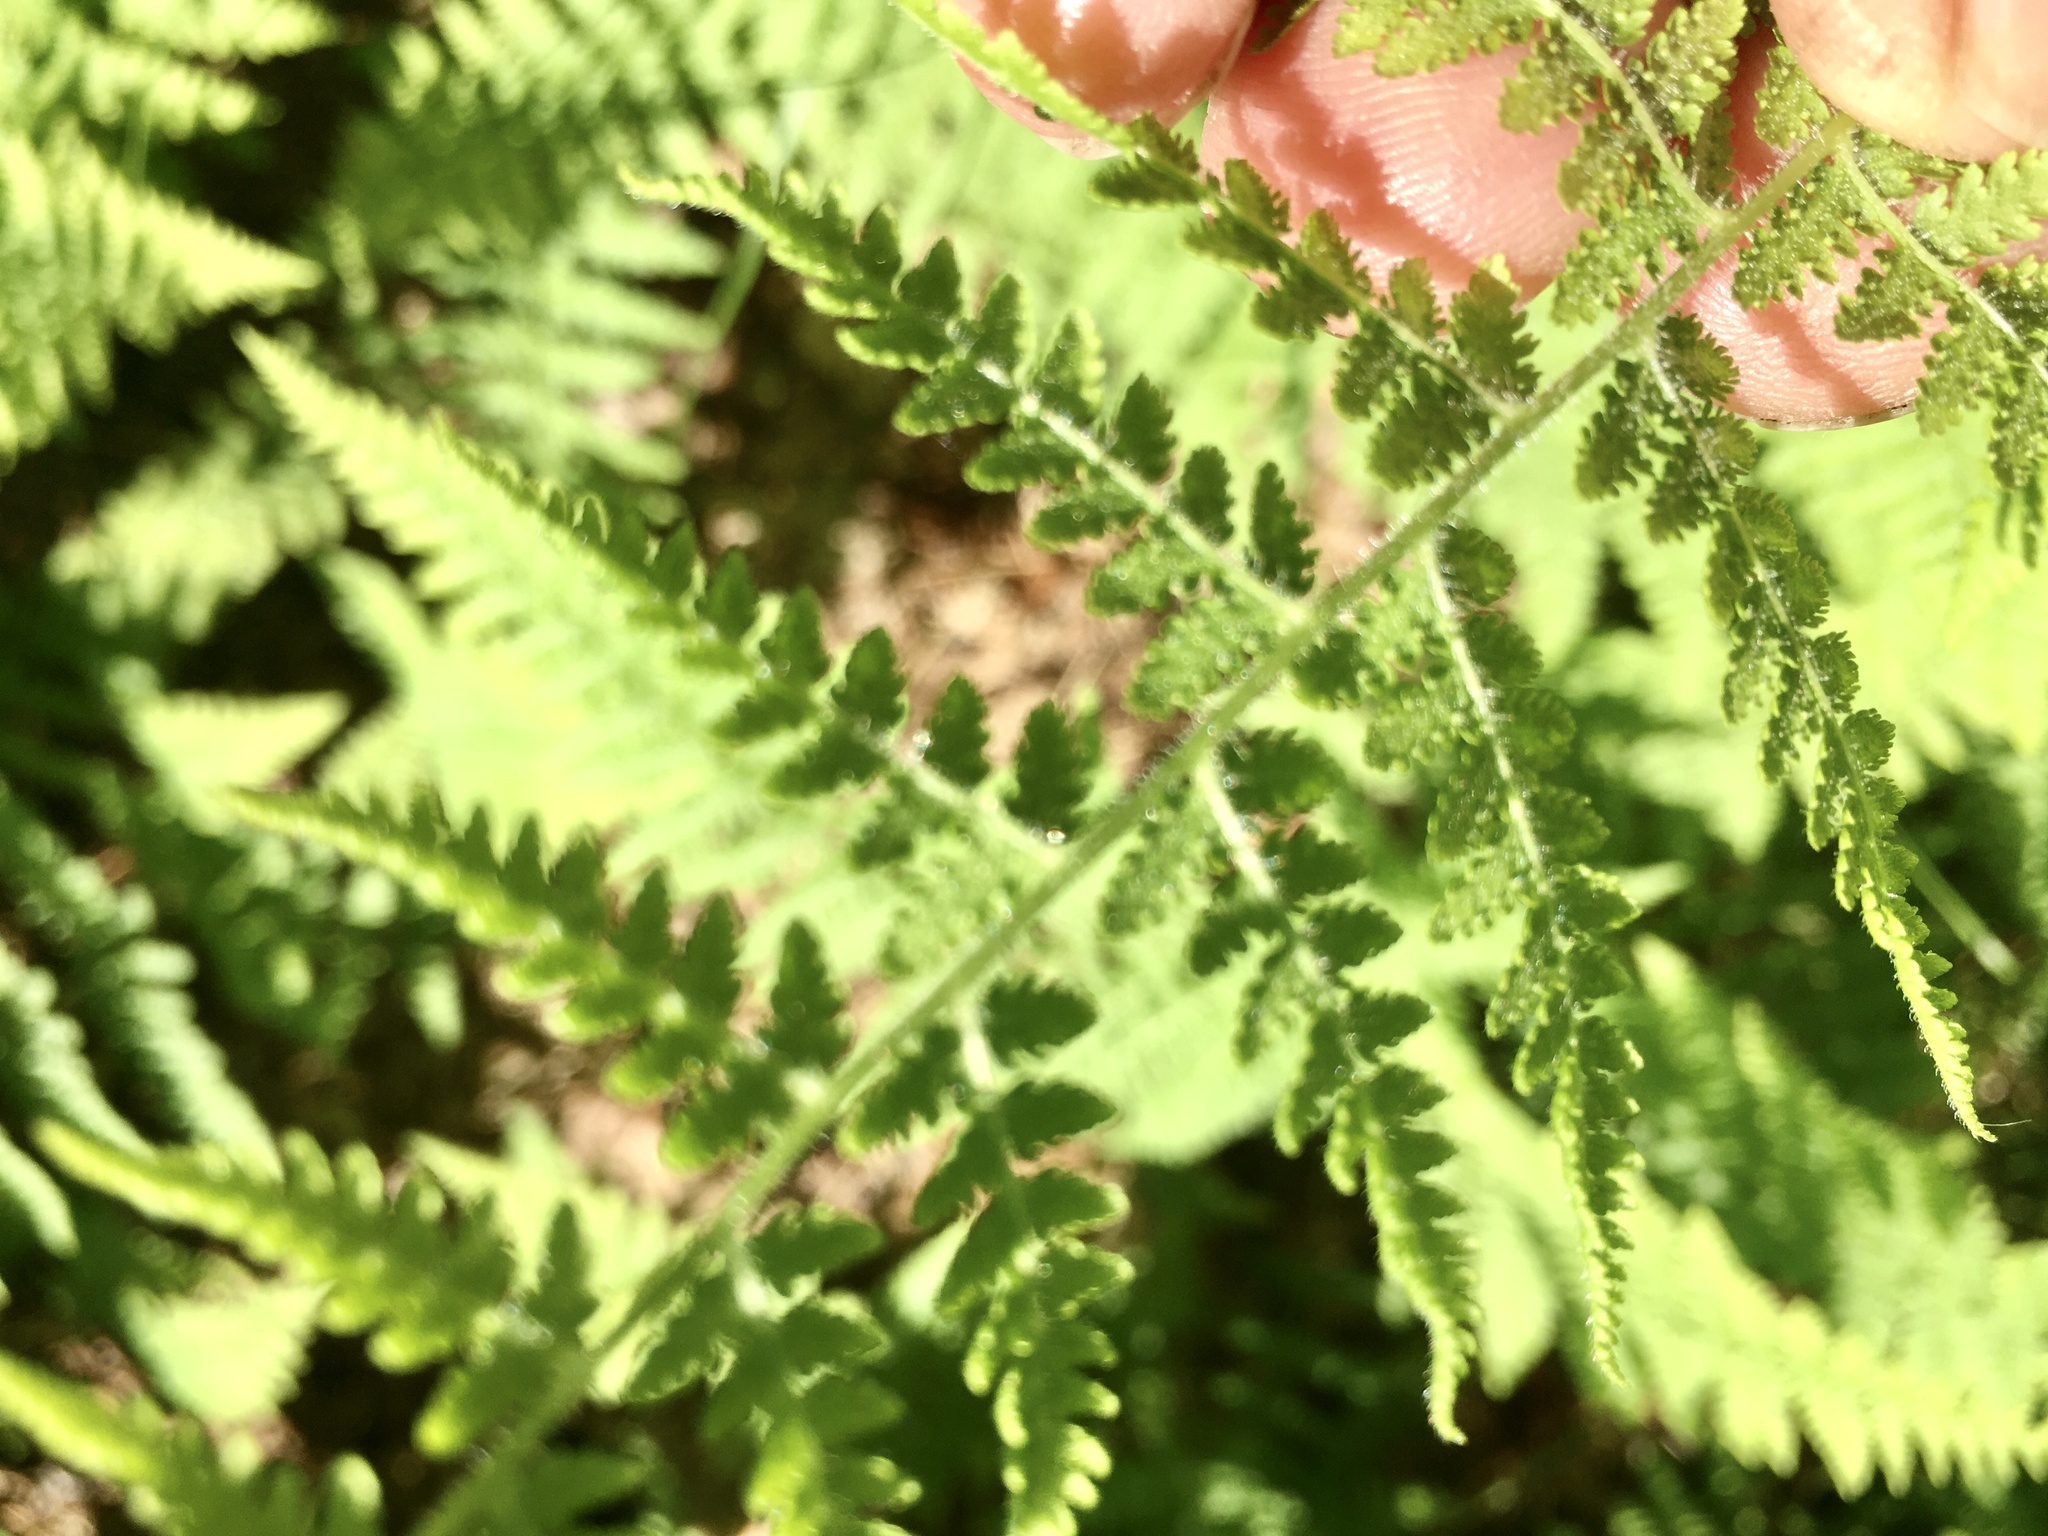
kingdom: Plantae
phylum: Tracheophyta
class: Polypodiopsida
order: Polypodiales
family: Dennstaedtiaceae
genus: Sitobolium
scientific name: Sitobolium punctilobum
